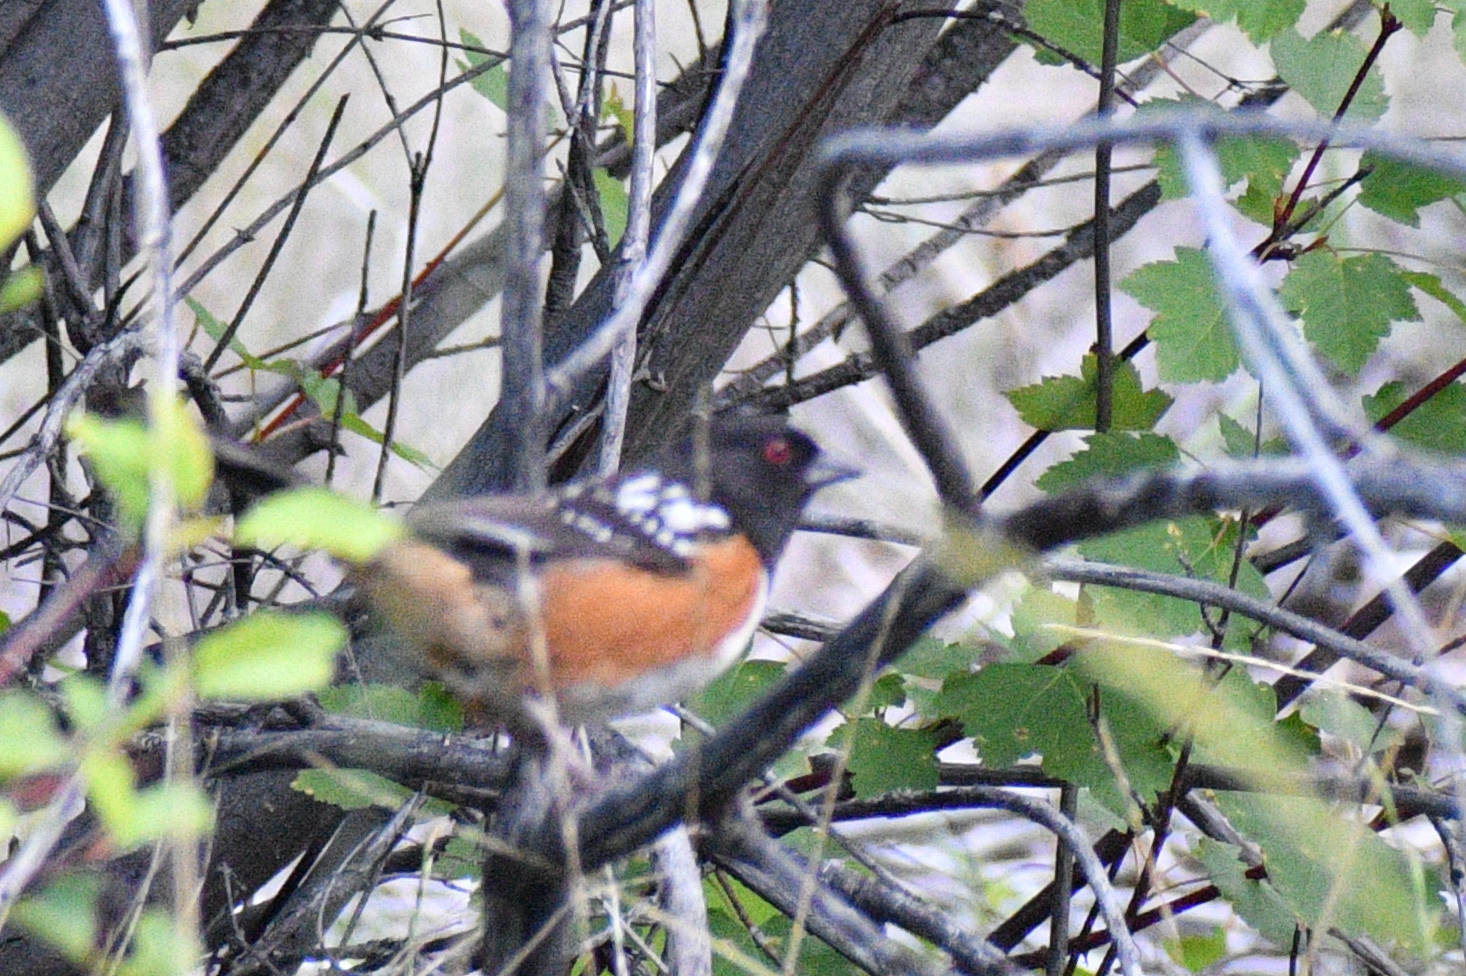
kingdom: Animalia
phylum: Chordata
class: Aves
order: Passeriformes
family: Passerellidae
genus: Pipilo
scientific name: Pipilo maculatus
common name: Spotted towhee
